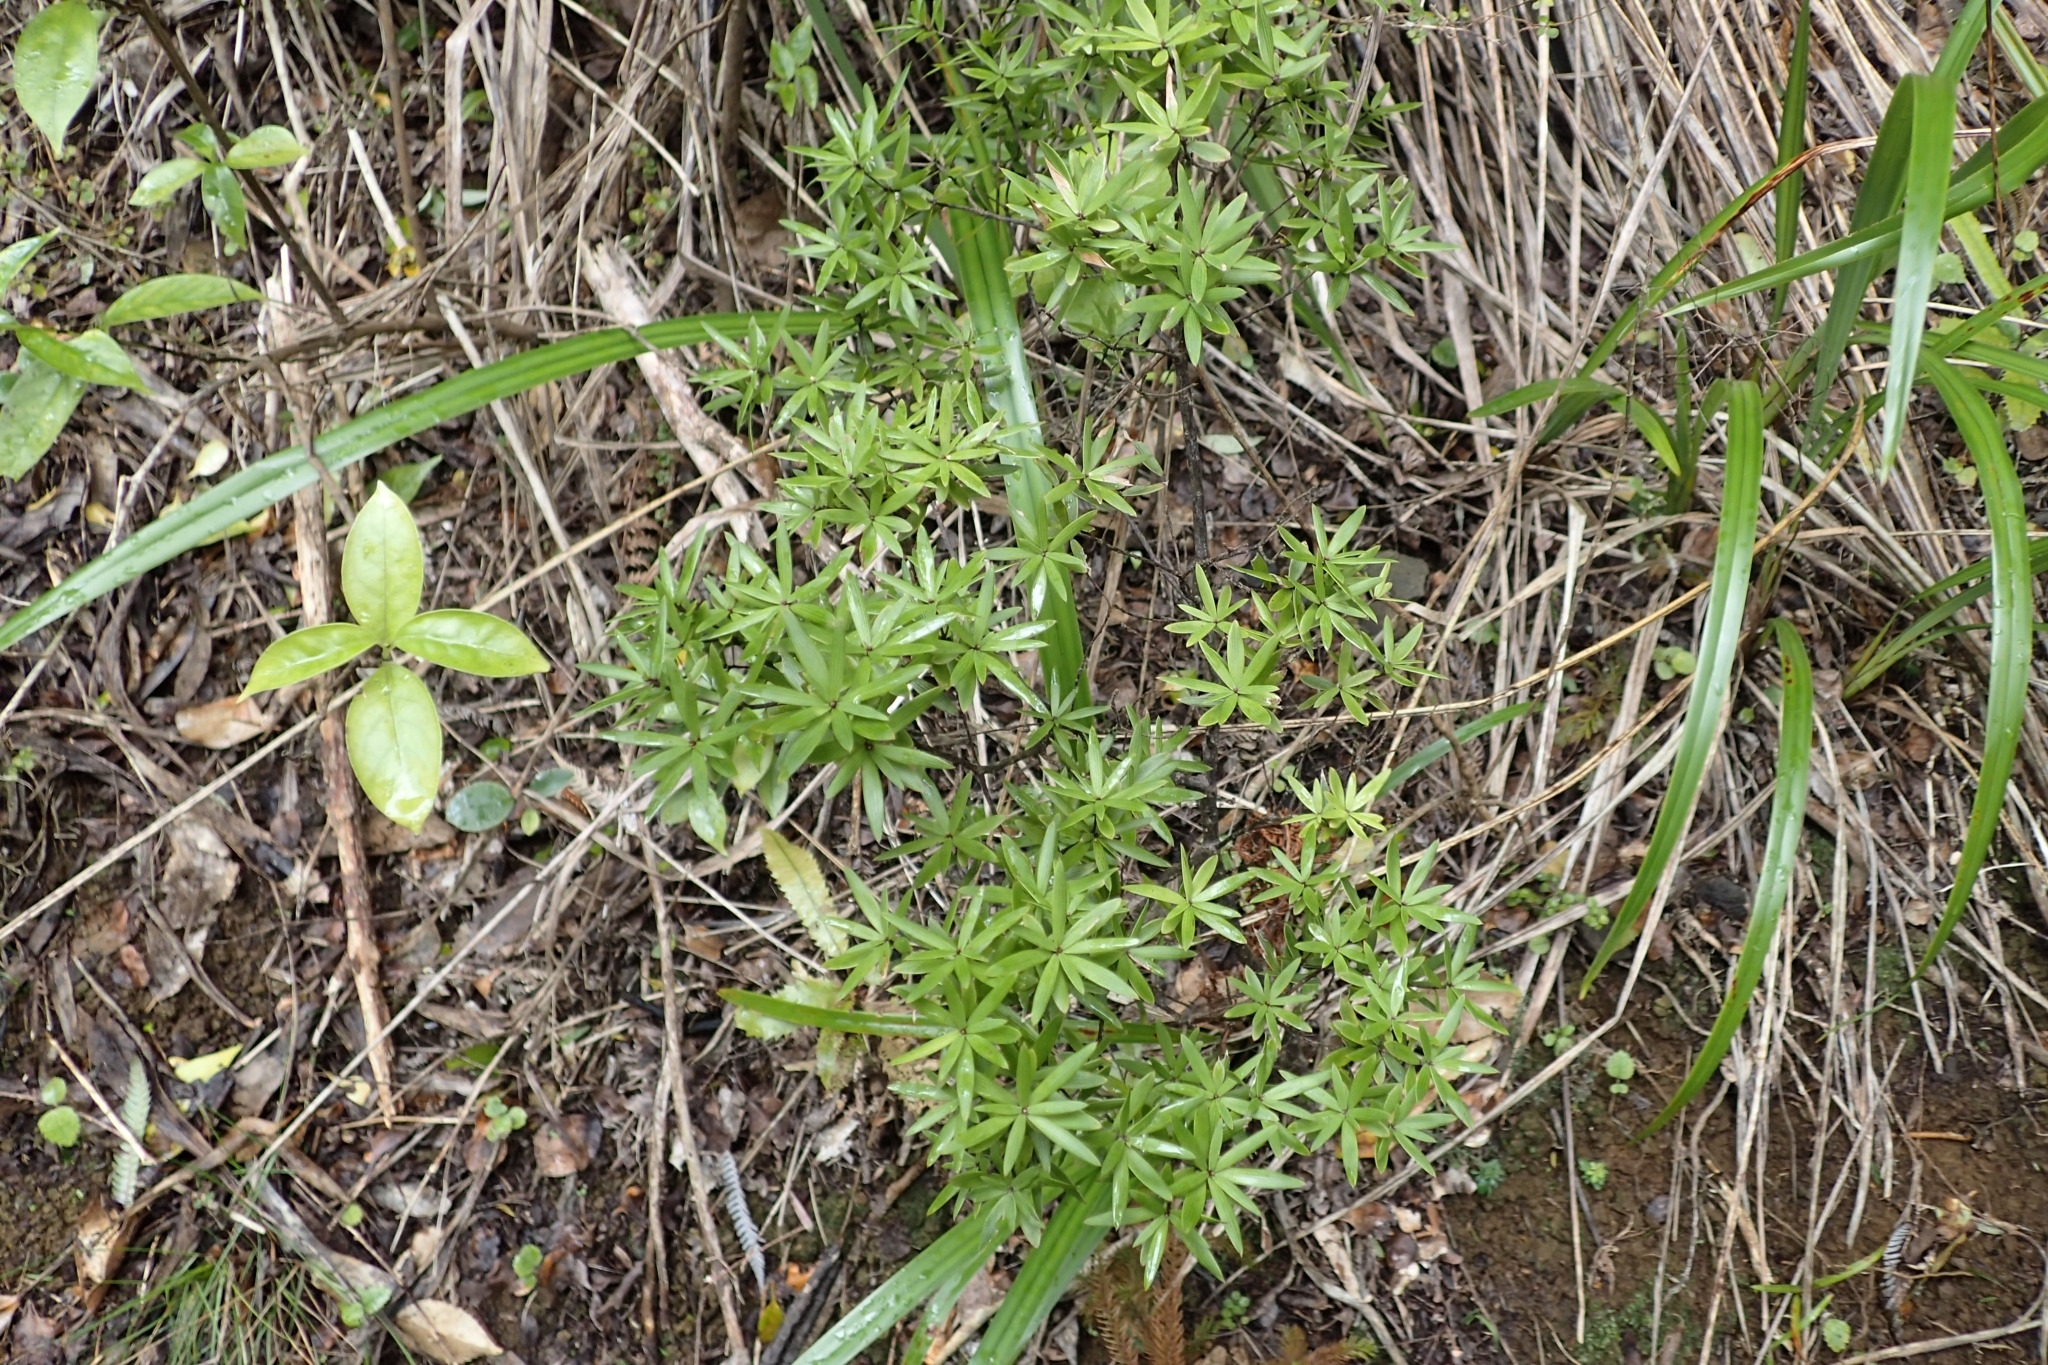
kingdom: Plantae
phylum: Tracheophyta
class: Magnoliopsida
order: Ericales
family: Ericaceae
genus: Leucopogon
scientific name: Leucopogon fasciculatus
